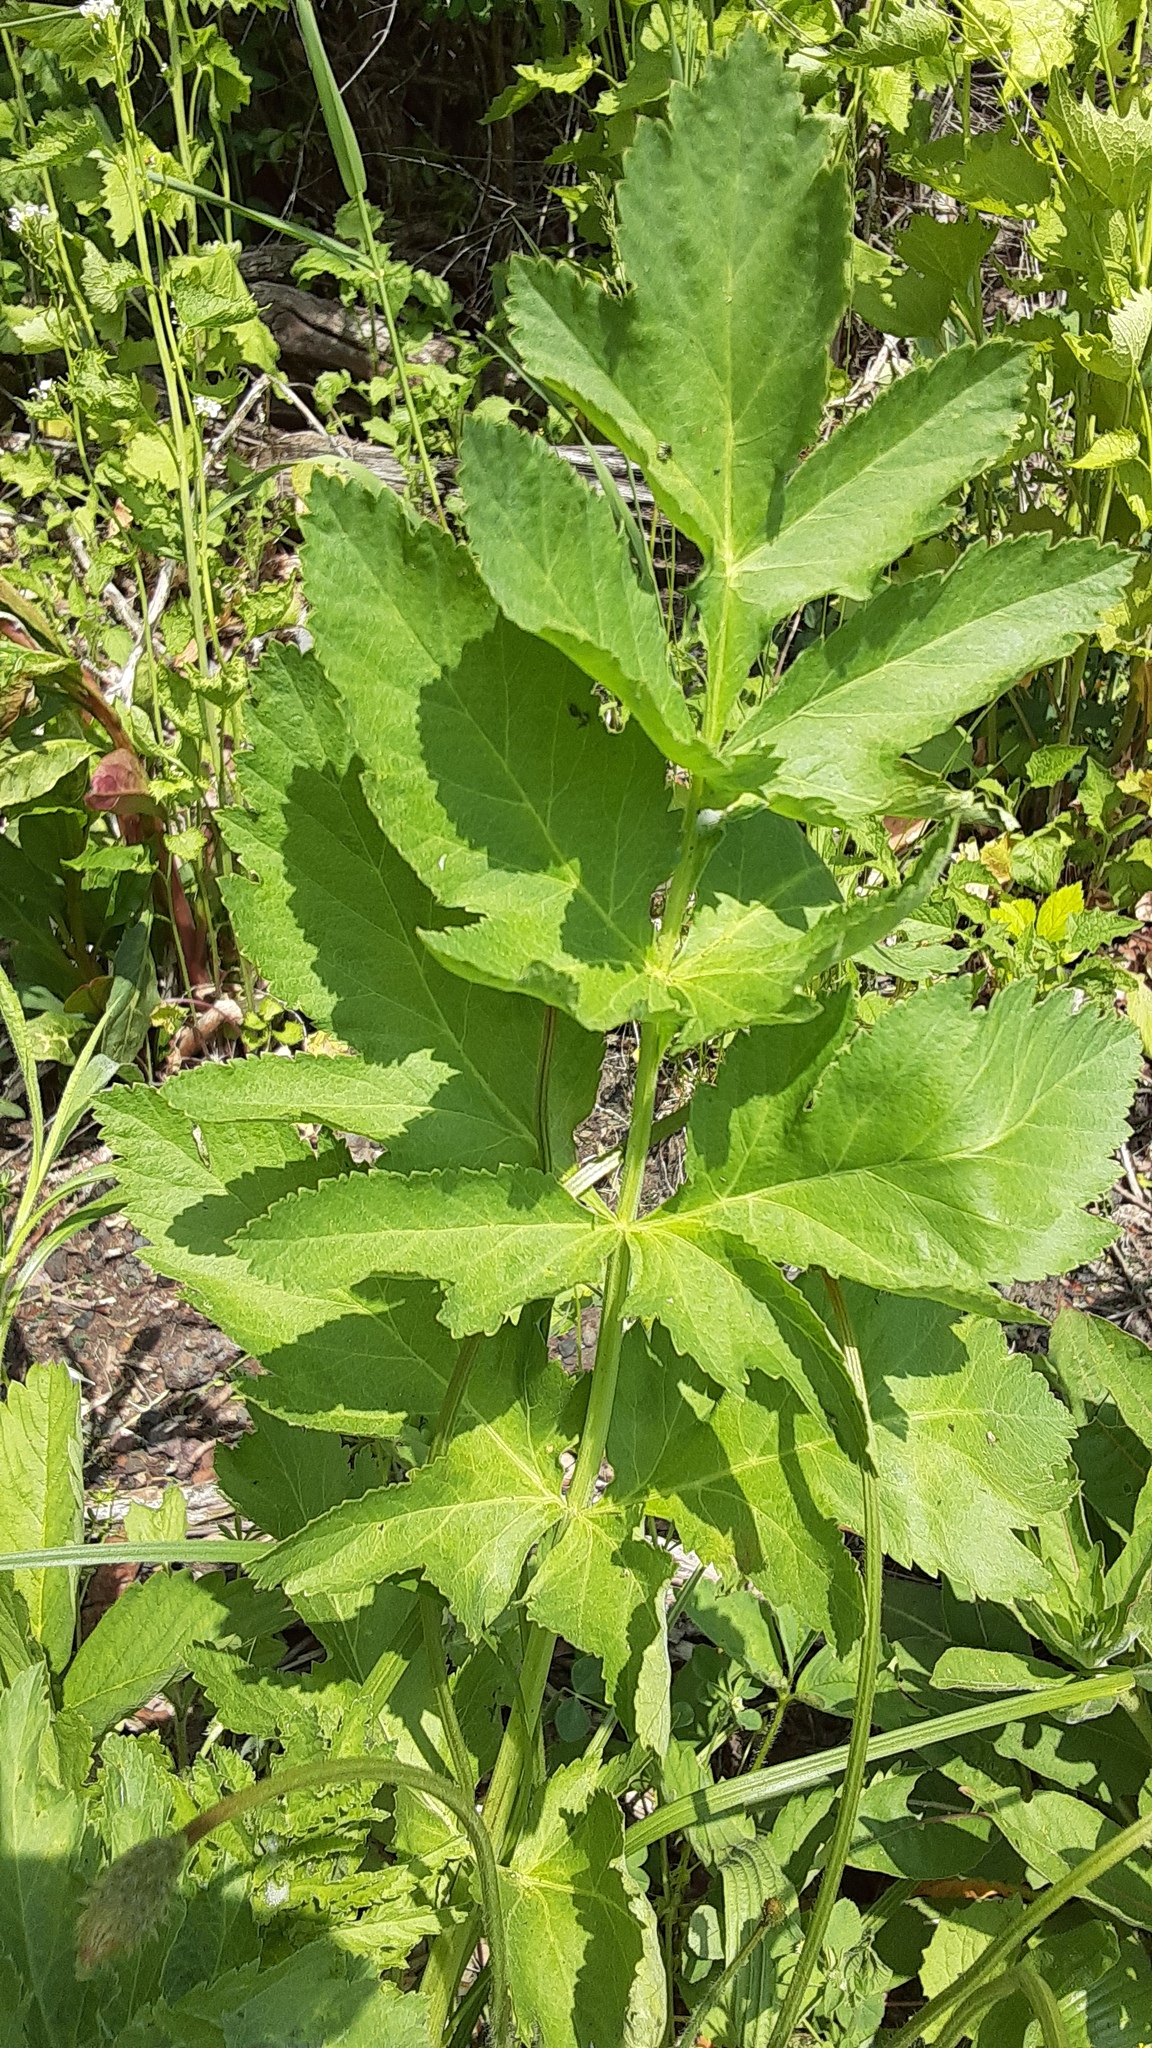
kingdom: Plantae
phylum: Tracheophyta
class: Magnoliopsida
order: Apiales
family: Apiaceae
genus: Pastinaca
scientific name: Pastinaca sativa
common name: Wild parsnip
